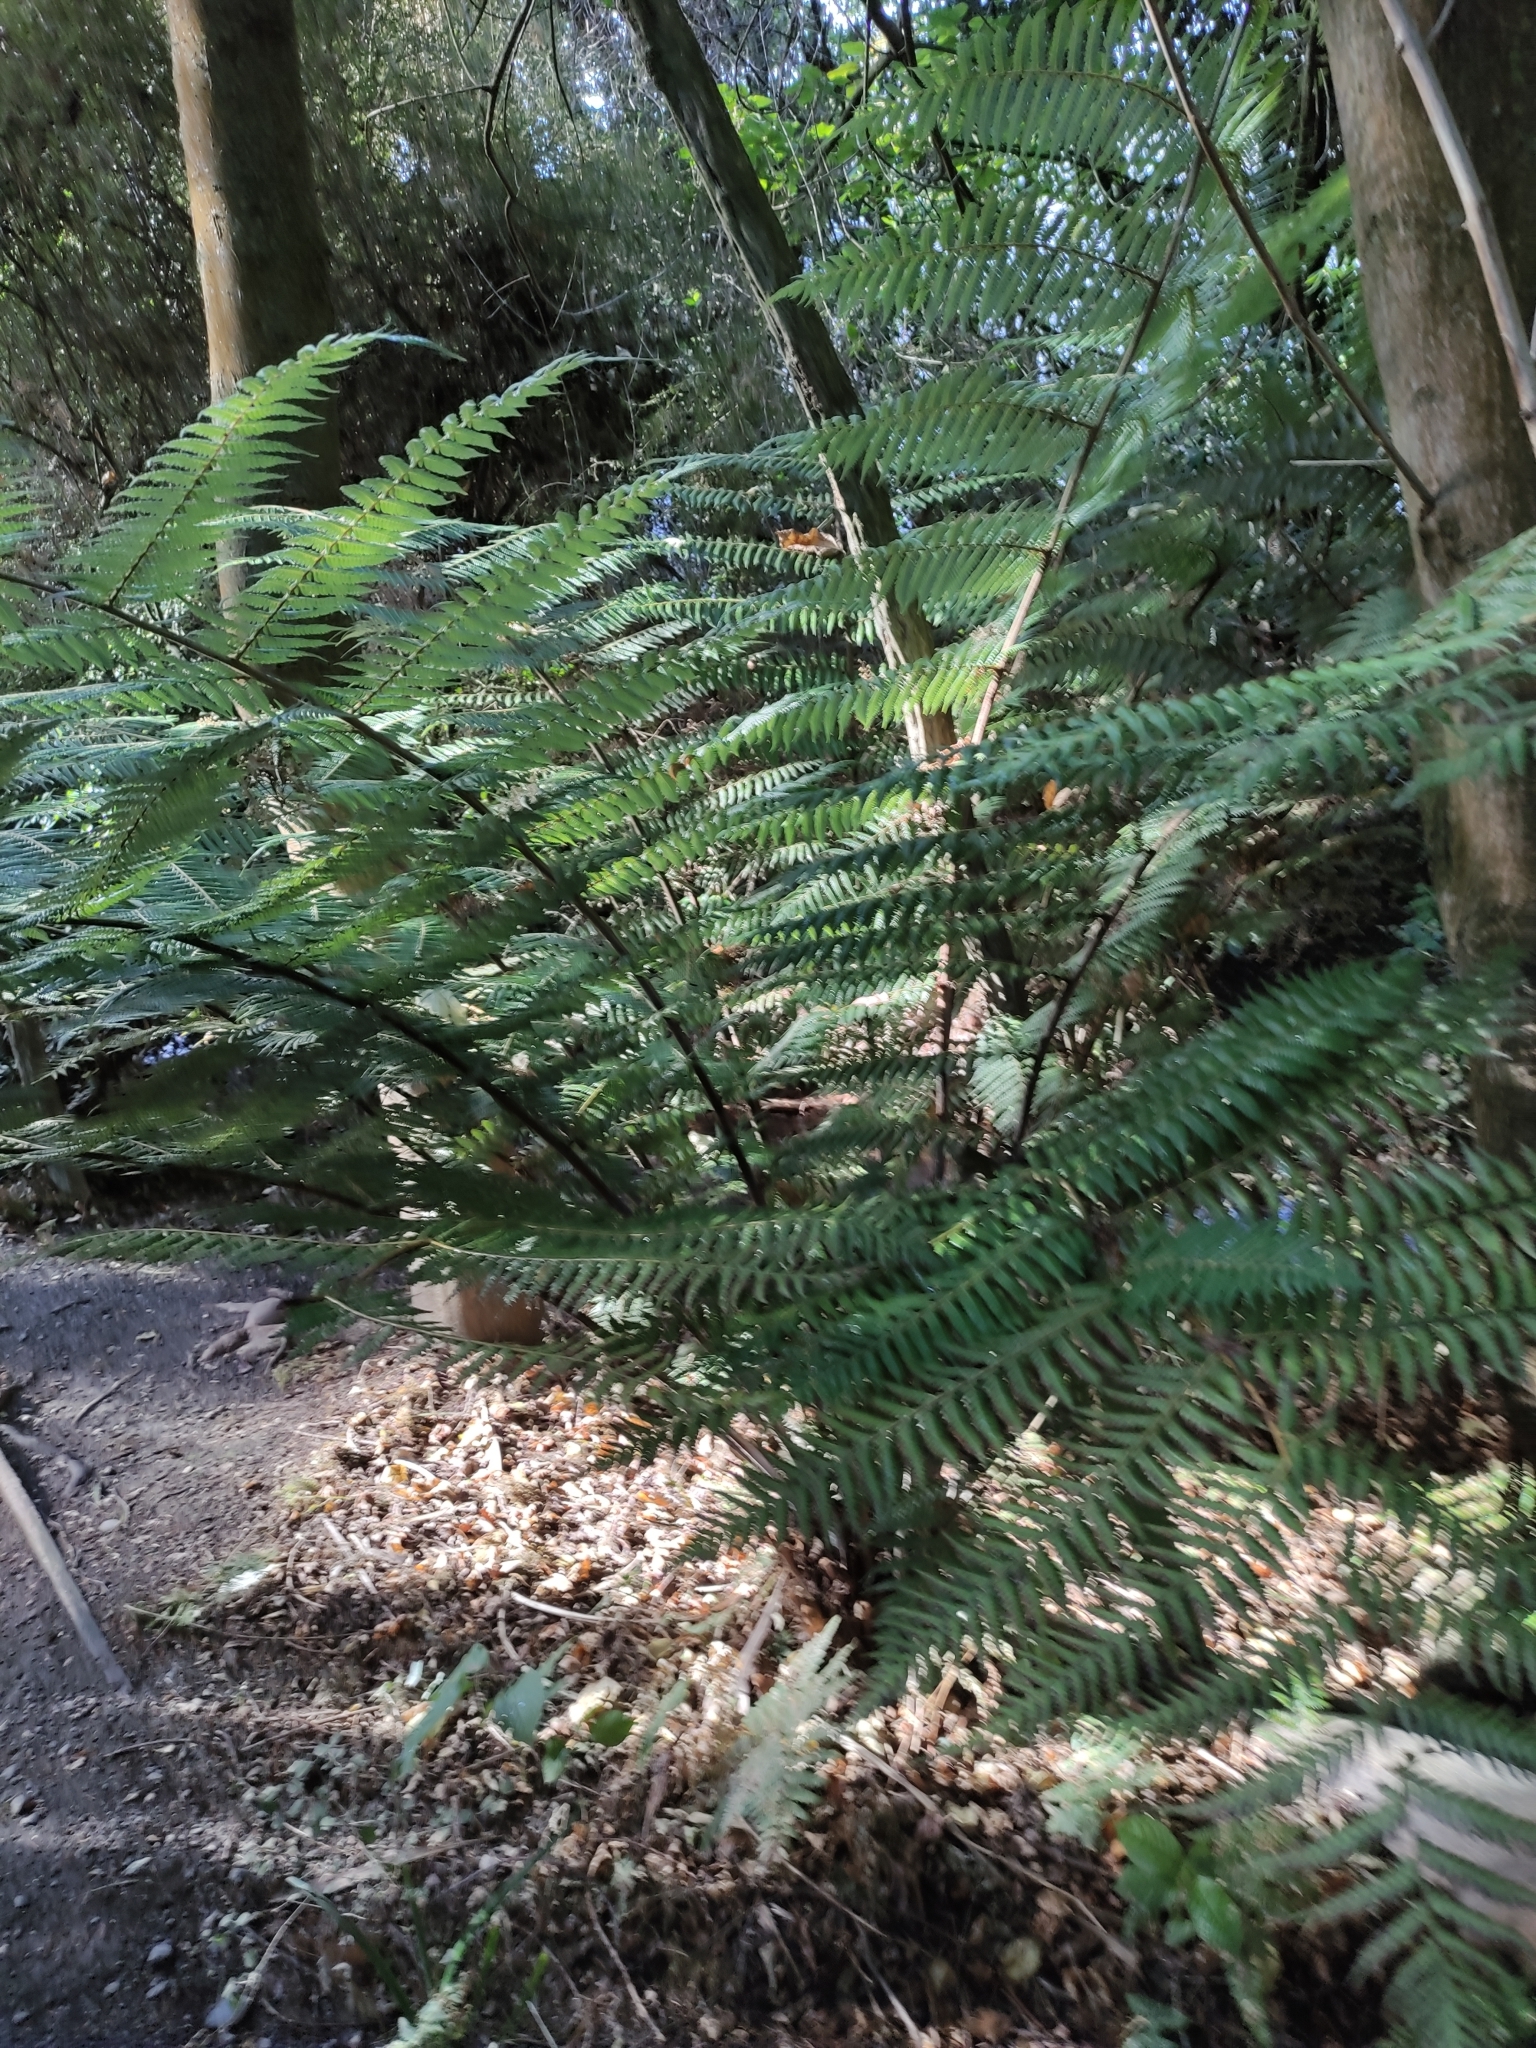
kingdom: Plantae
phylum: Tracheophyta
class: Polypodiopsida
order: Cyatheales
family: Cyatheaceae
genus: Alsophila
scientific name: Alsophila dealbata
